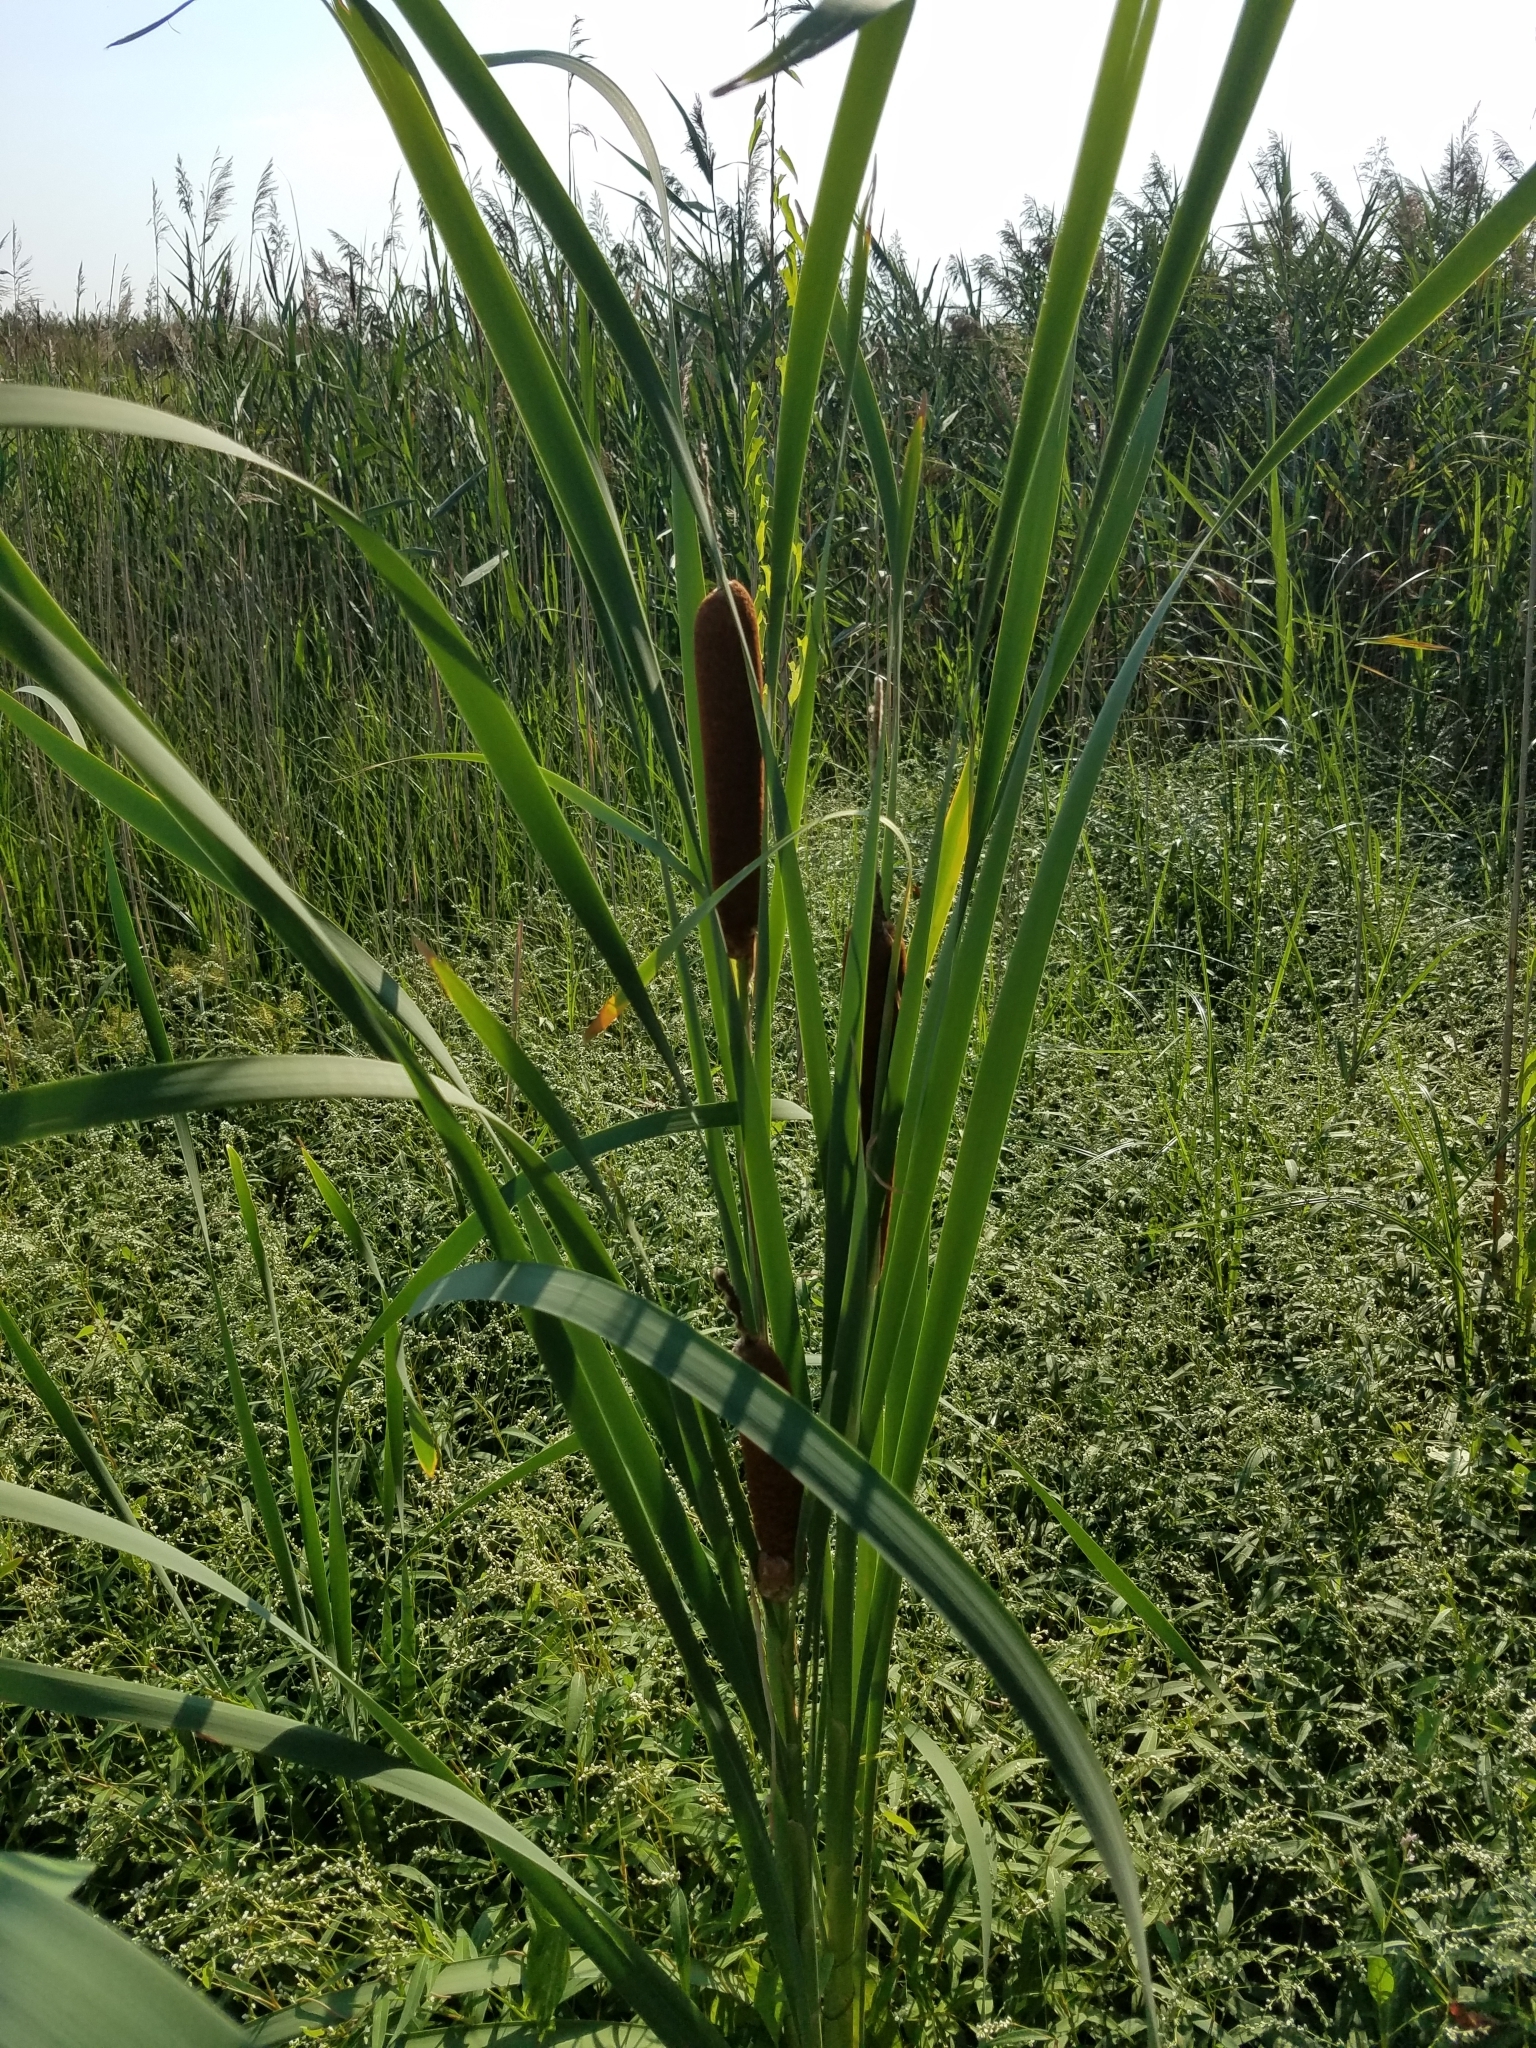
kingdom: Plantae
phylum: Tracheophyta
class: Liliopsida
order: Poales
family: Typhaceae
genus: Typha
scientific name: Typha latifolia
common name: Broadleaf cattail
